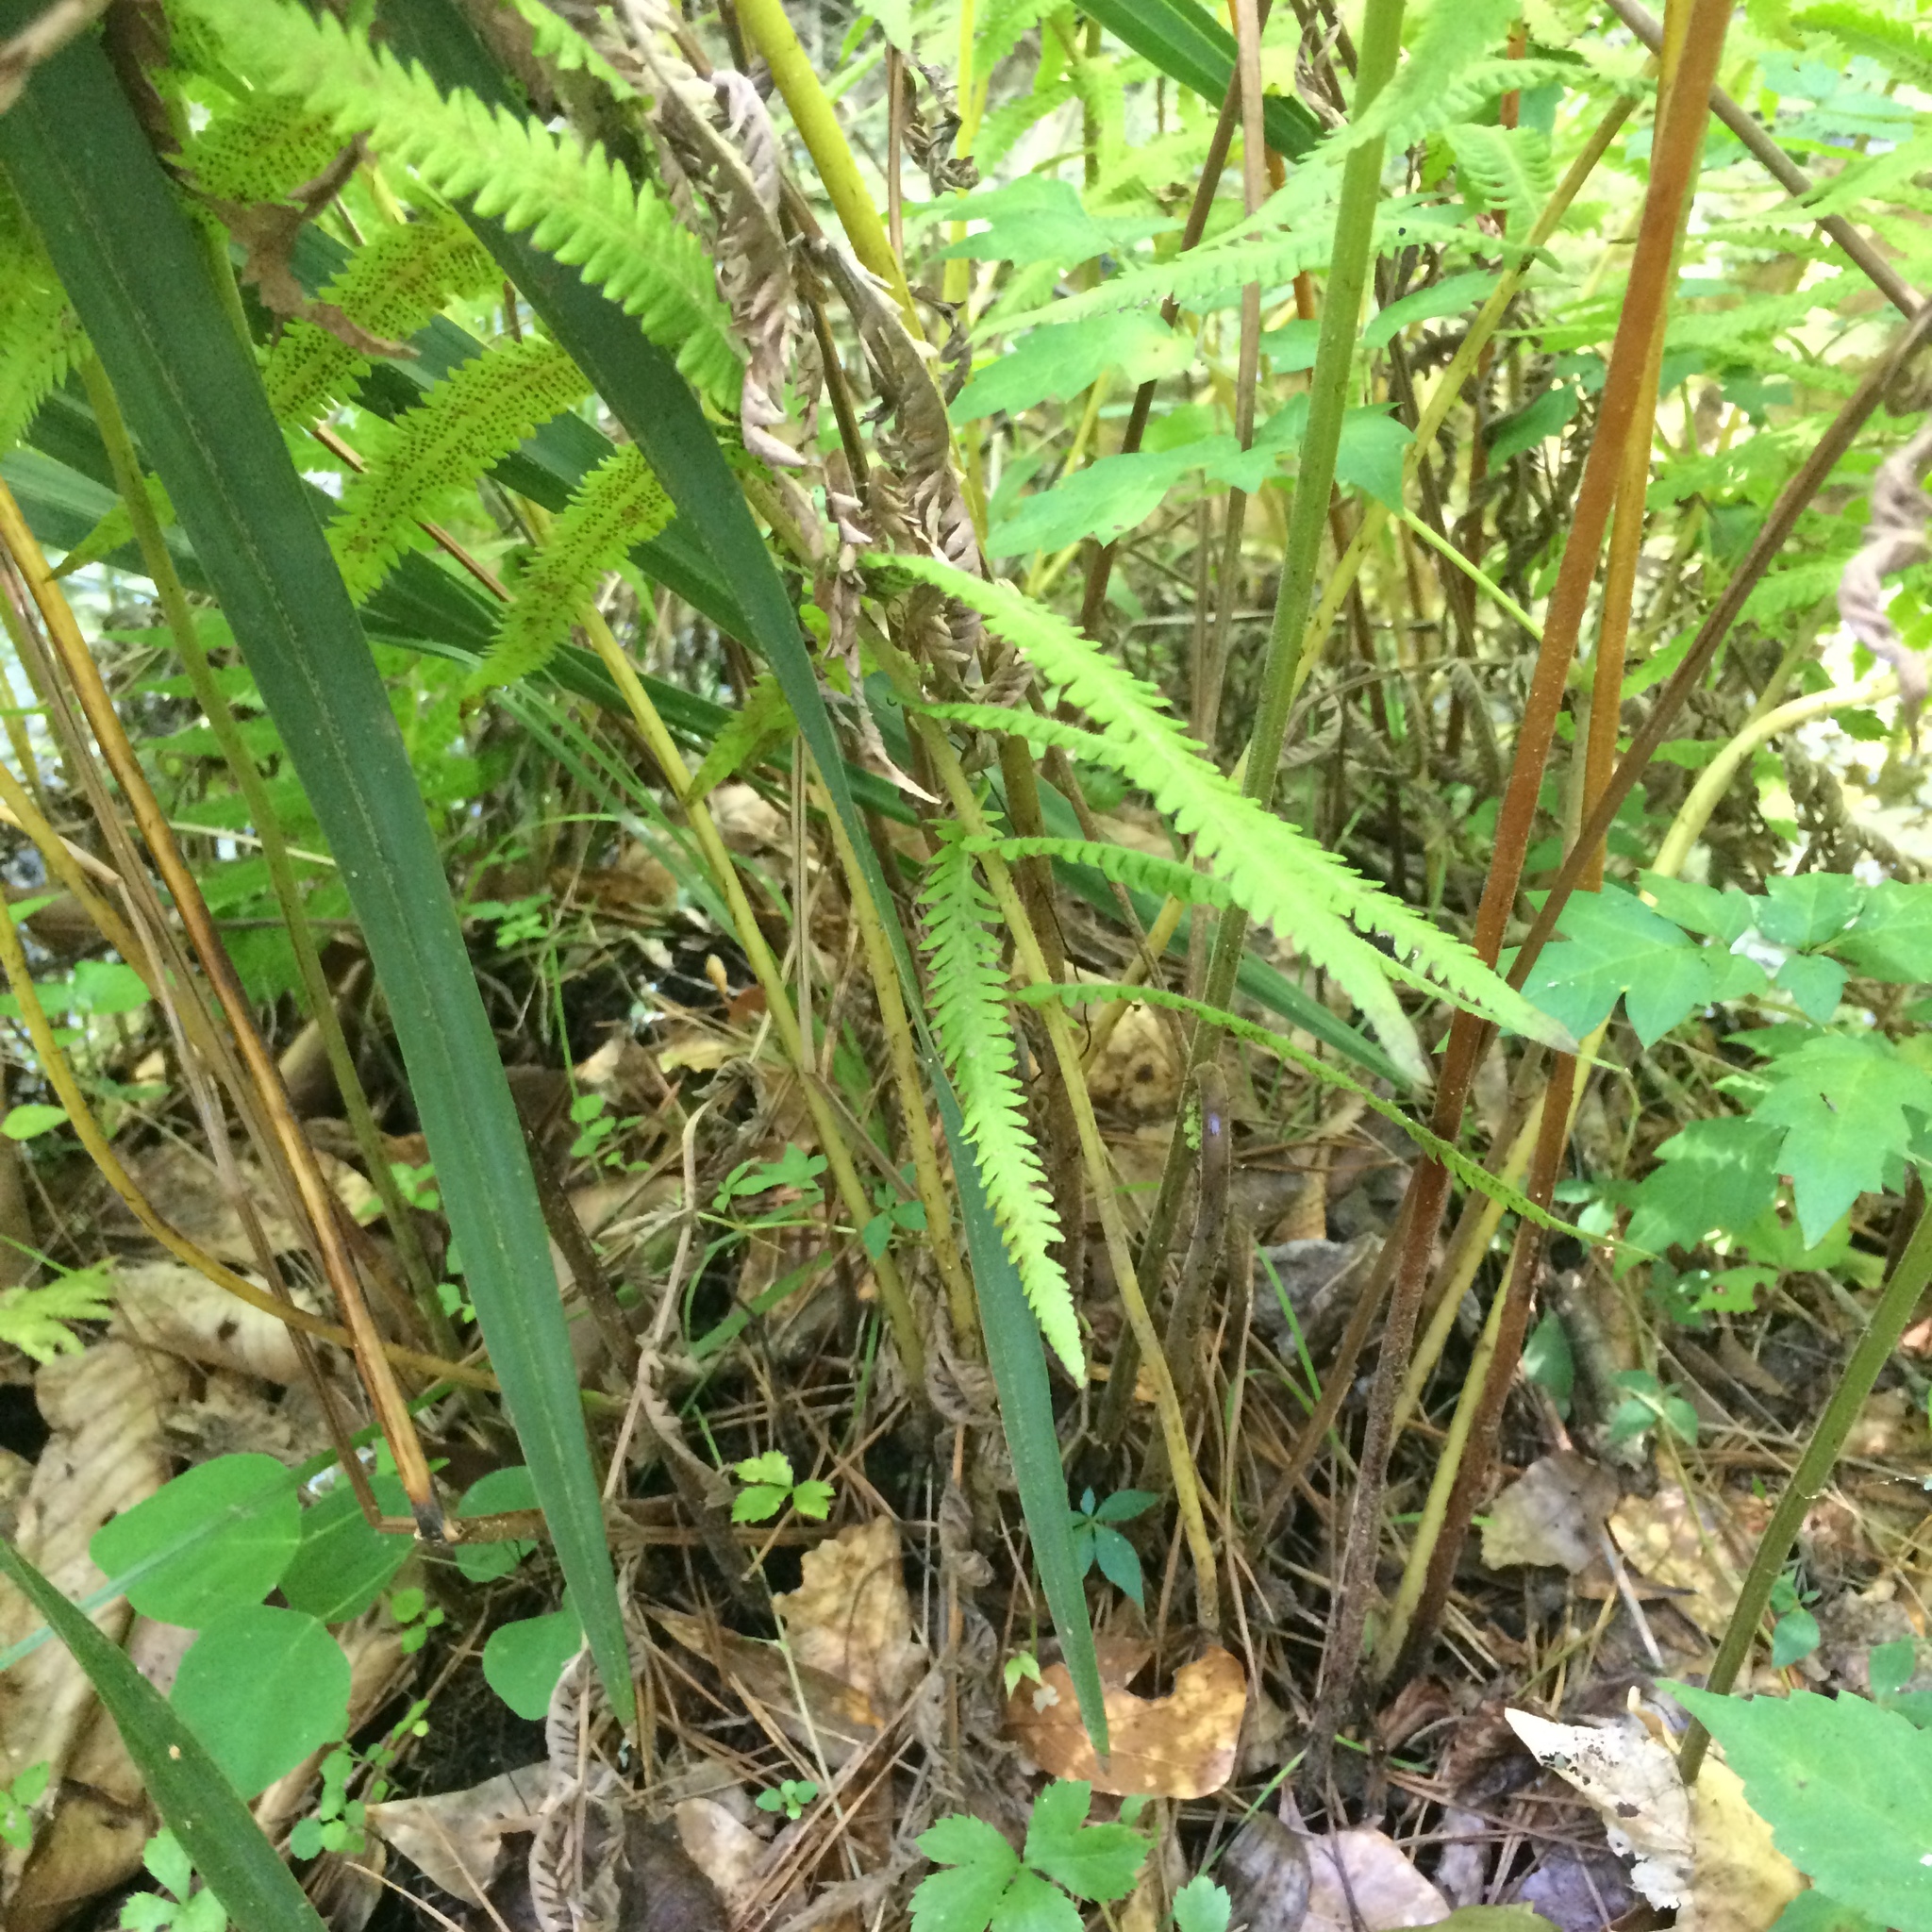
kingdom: Plantae
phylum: Tracheophyta
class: Polypodiopsida
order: Polypodiales
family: Thelypteridaceae
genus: Pelazoneuron
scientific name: Pelazoneuron kunthii
